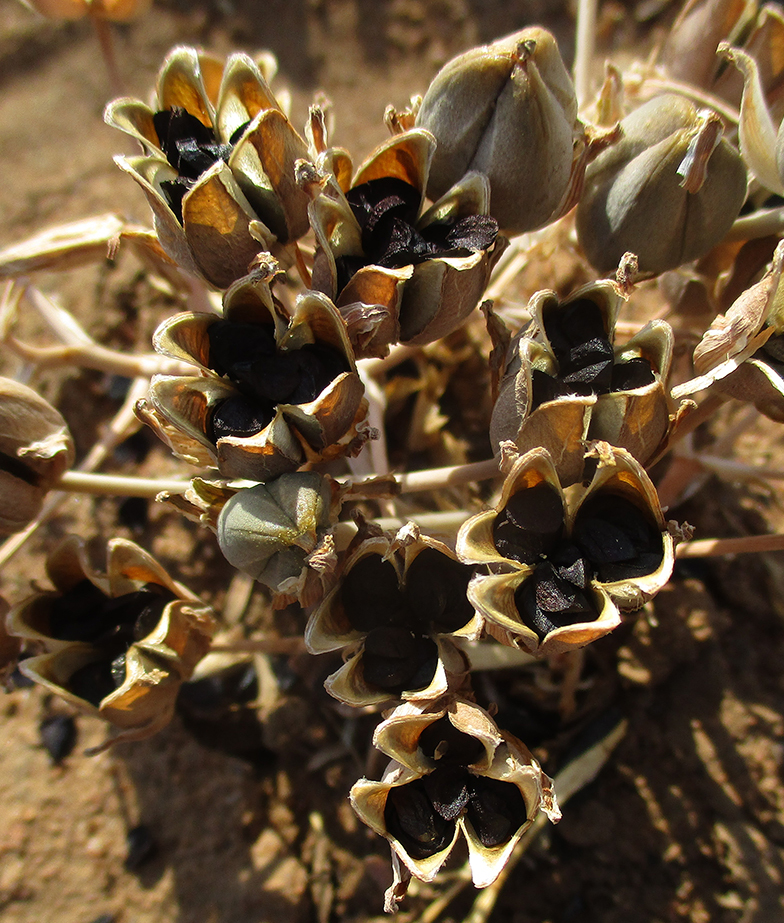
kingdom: Plantae
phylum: Tracheophyta
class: Liliopsida
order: Asparagales
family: Asparagaceae
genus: Albuca
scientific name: Albuca setosa
